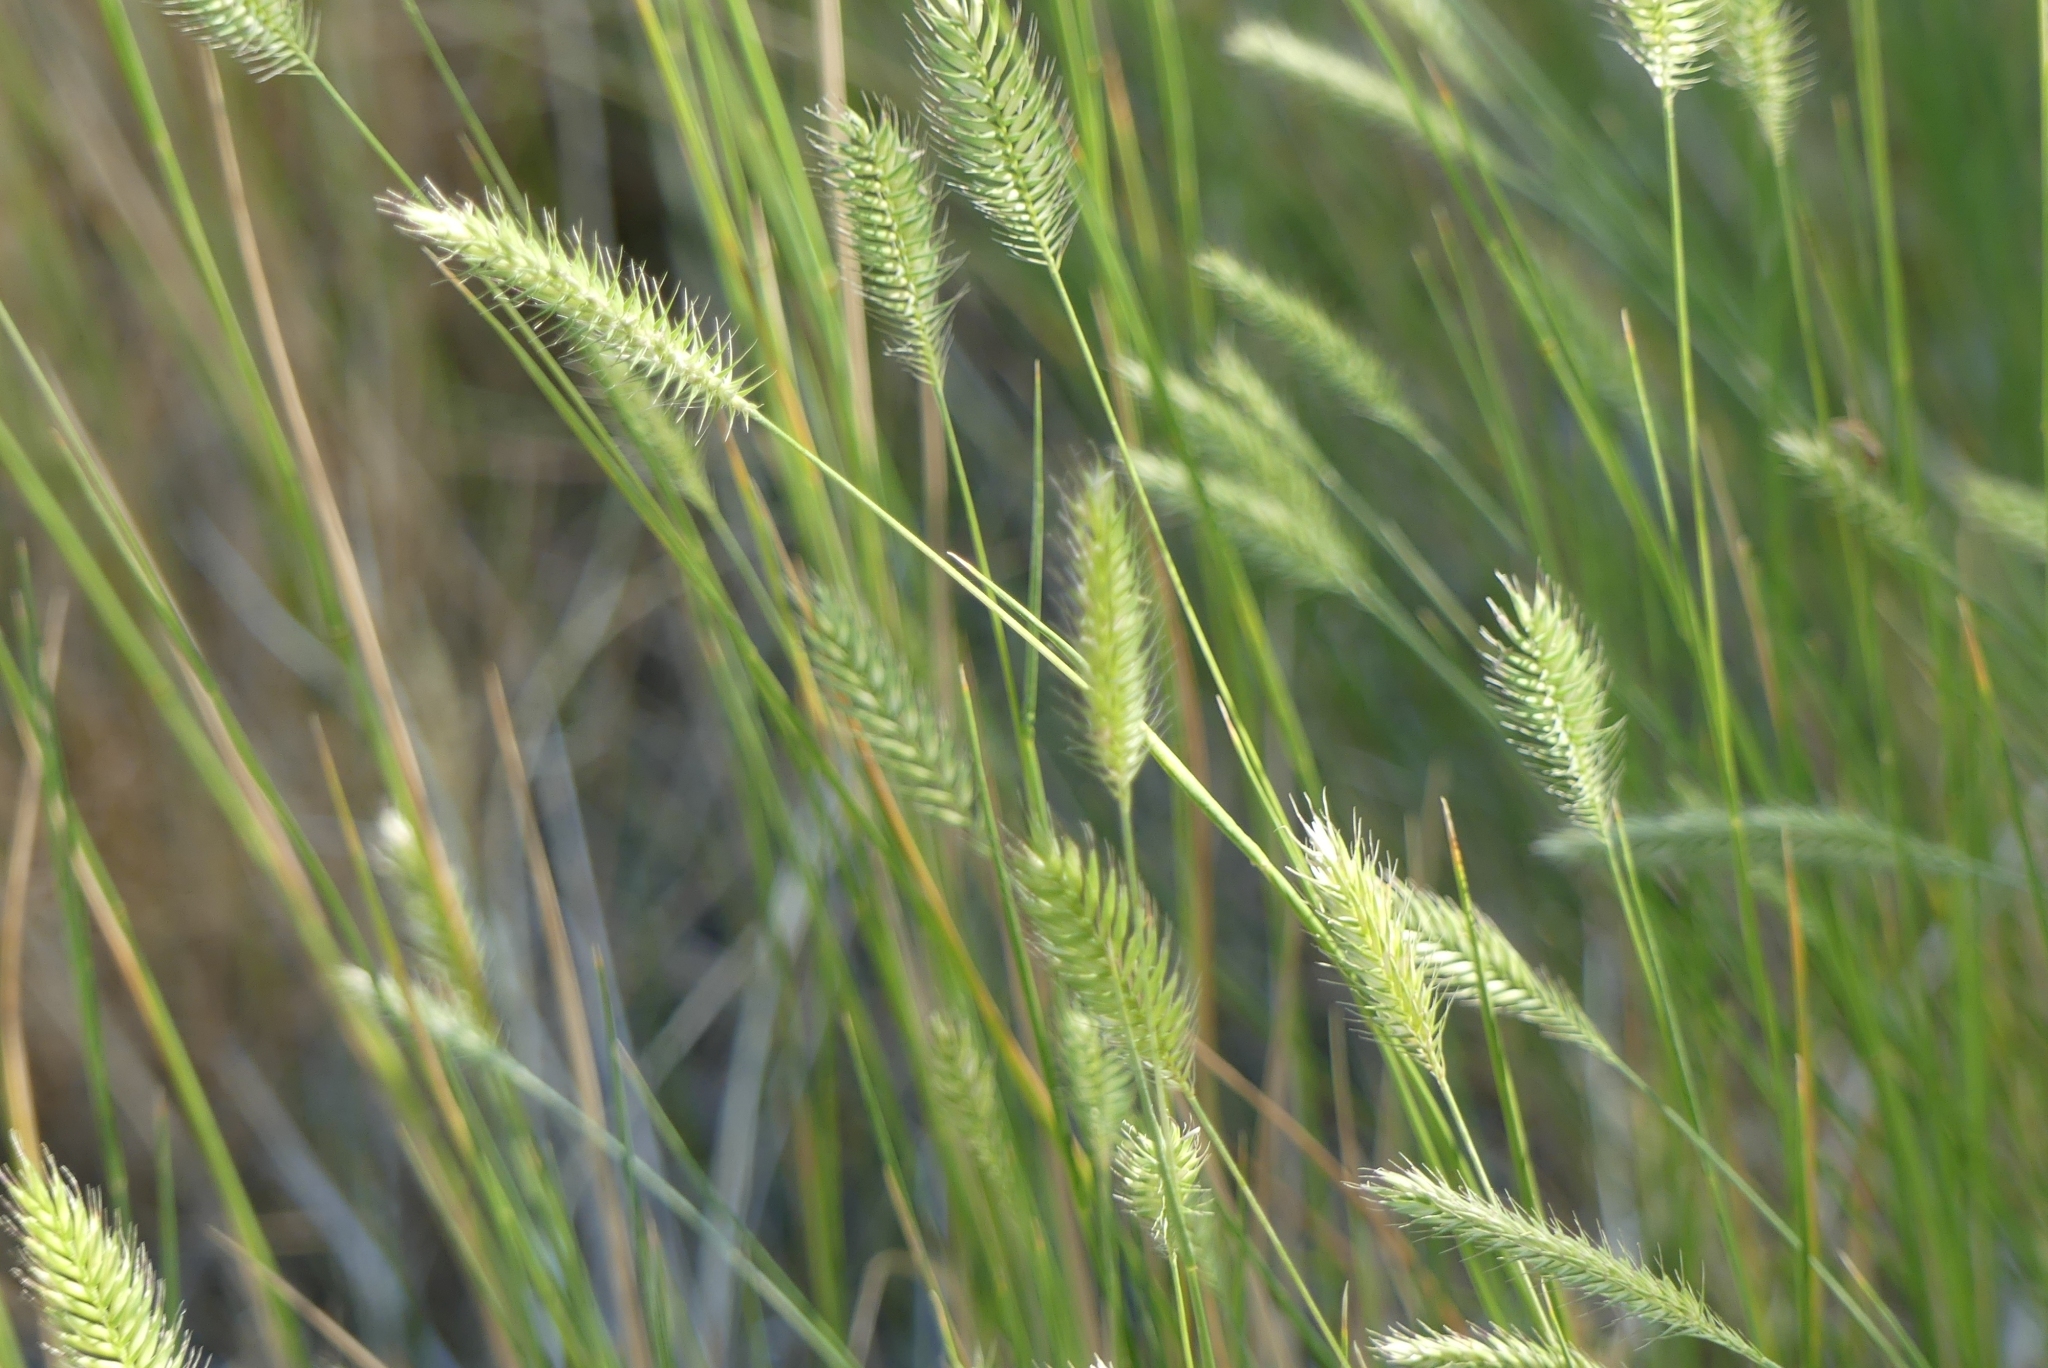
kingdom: Plantae
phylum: Tracheophyta
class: Liliopsida
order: Poales
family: Poaceae
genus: Agropyron
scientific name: Agropyron cristatum
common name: Crested wheatgrass
